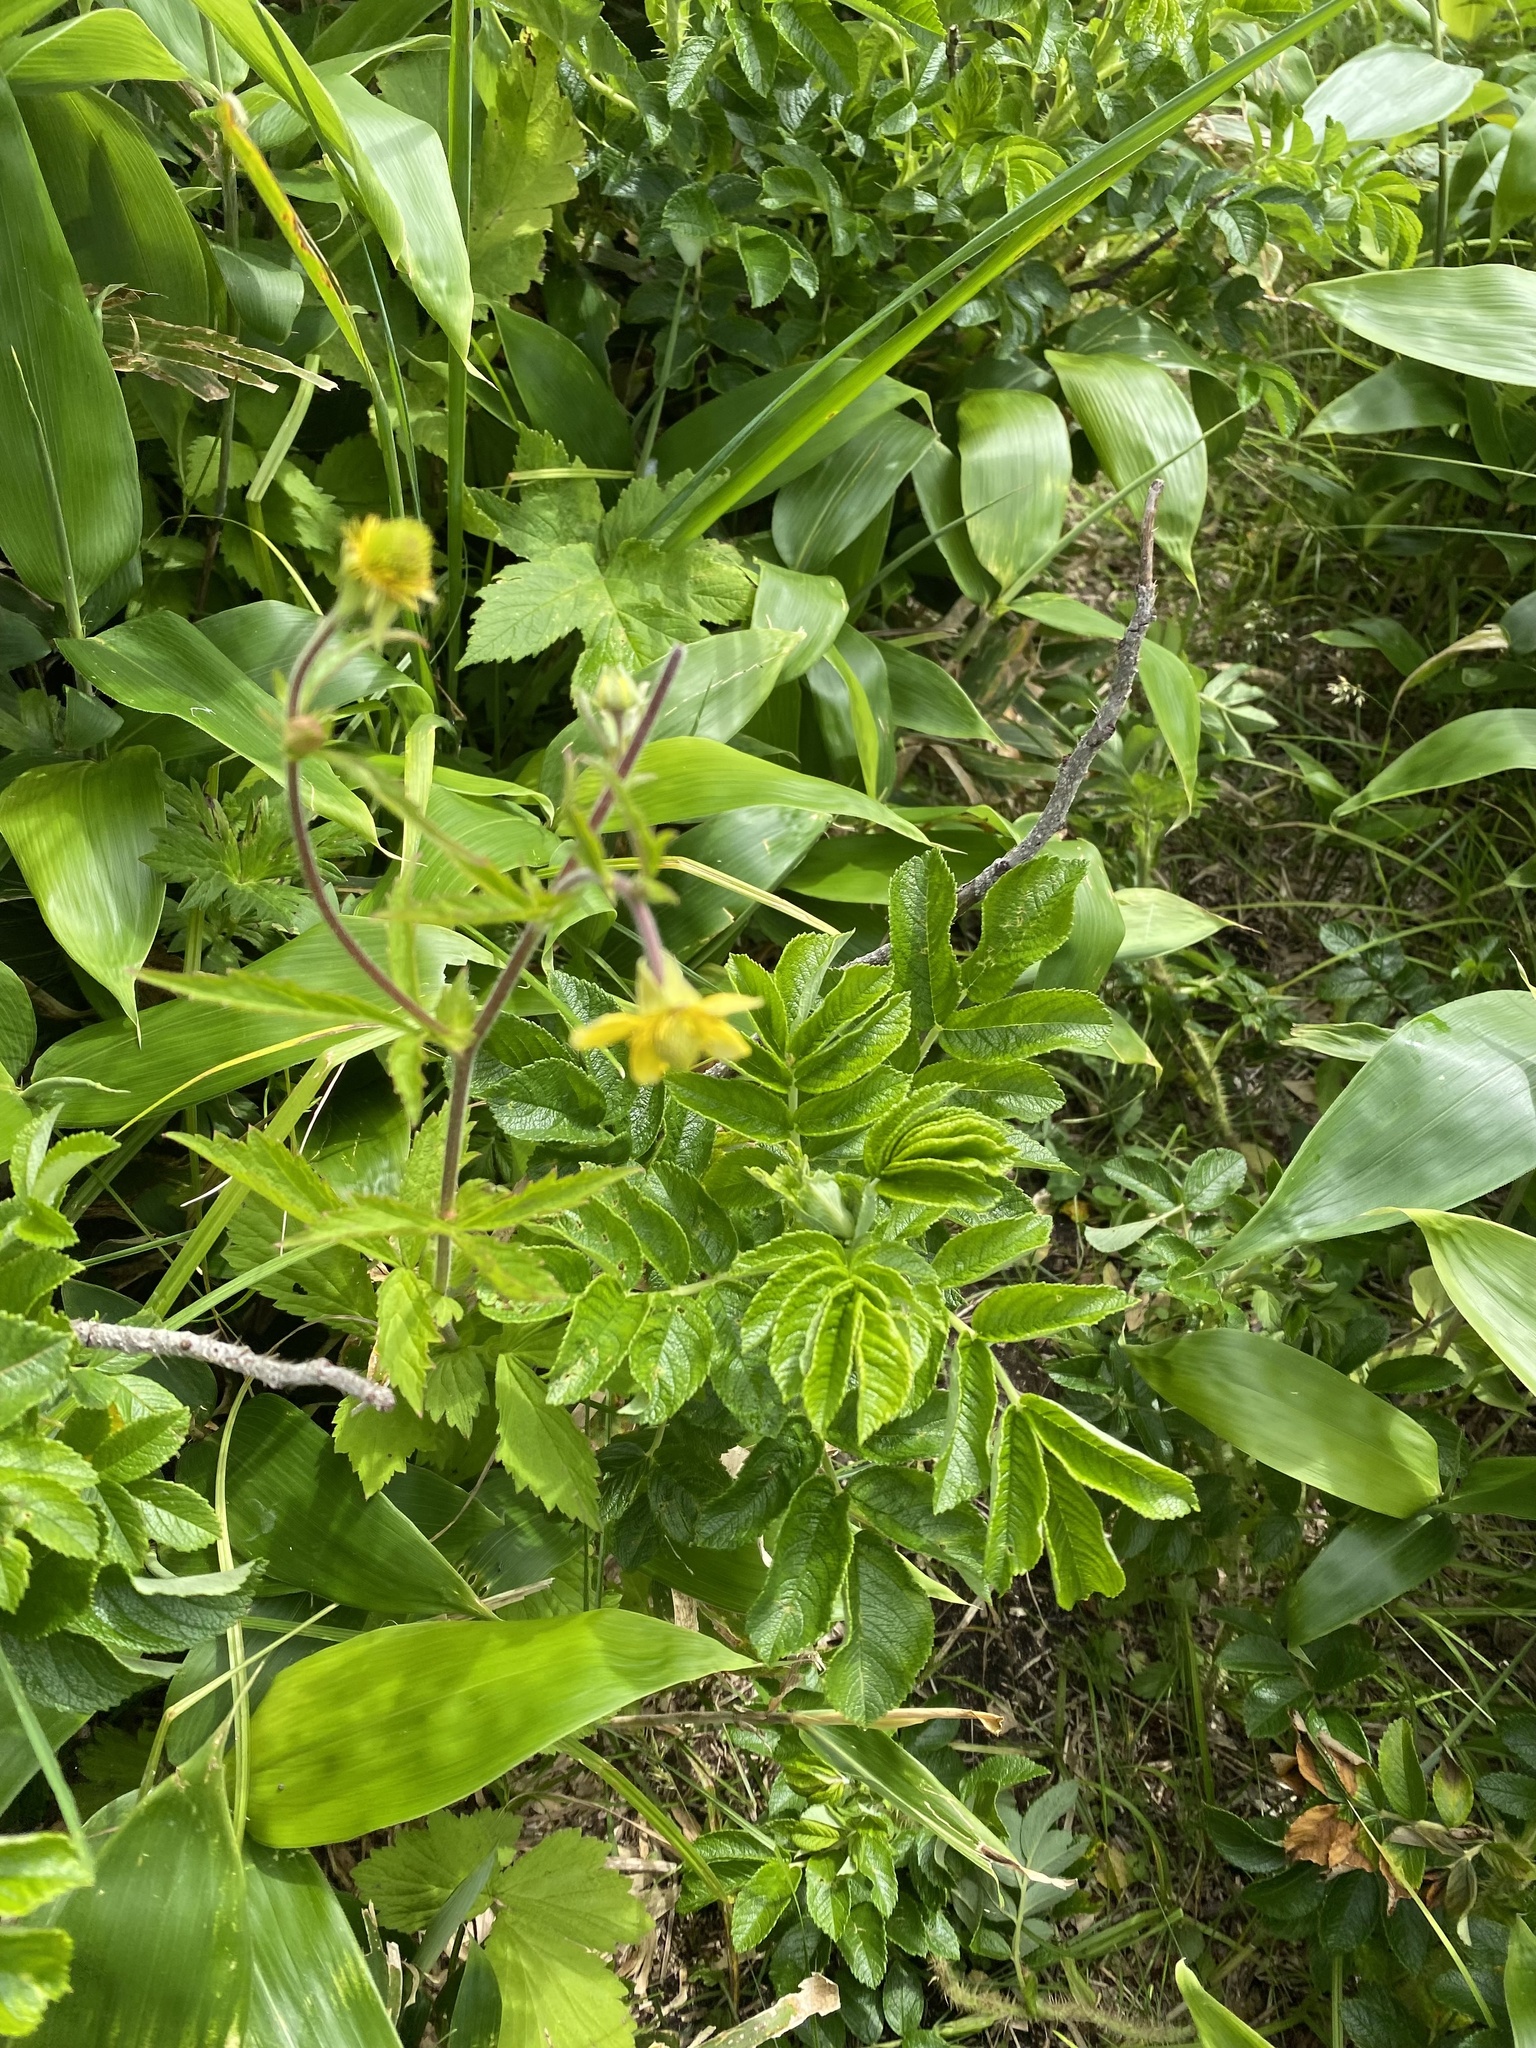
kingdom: Plantae
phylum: Tracheophyta
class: Magnoliopsida
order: Rosales
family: Rosaceae
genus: Geum
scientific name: Geum aleppicum
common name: Yellow avens
